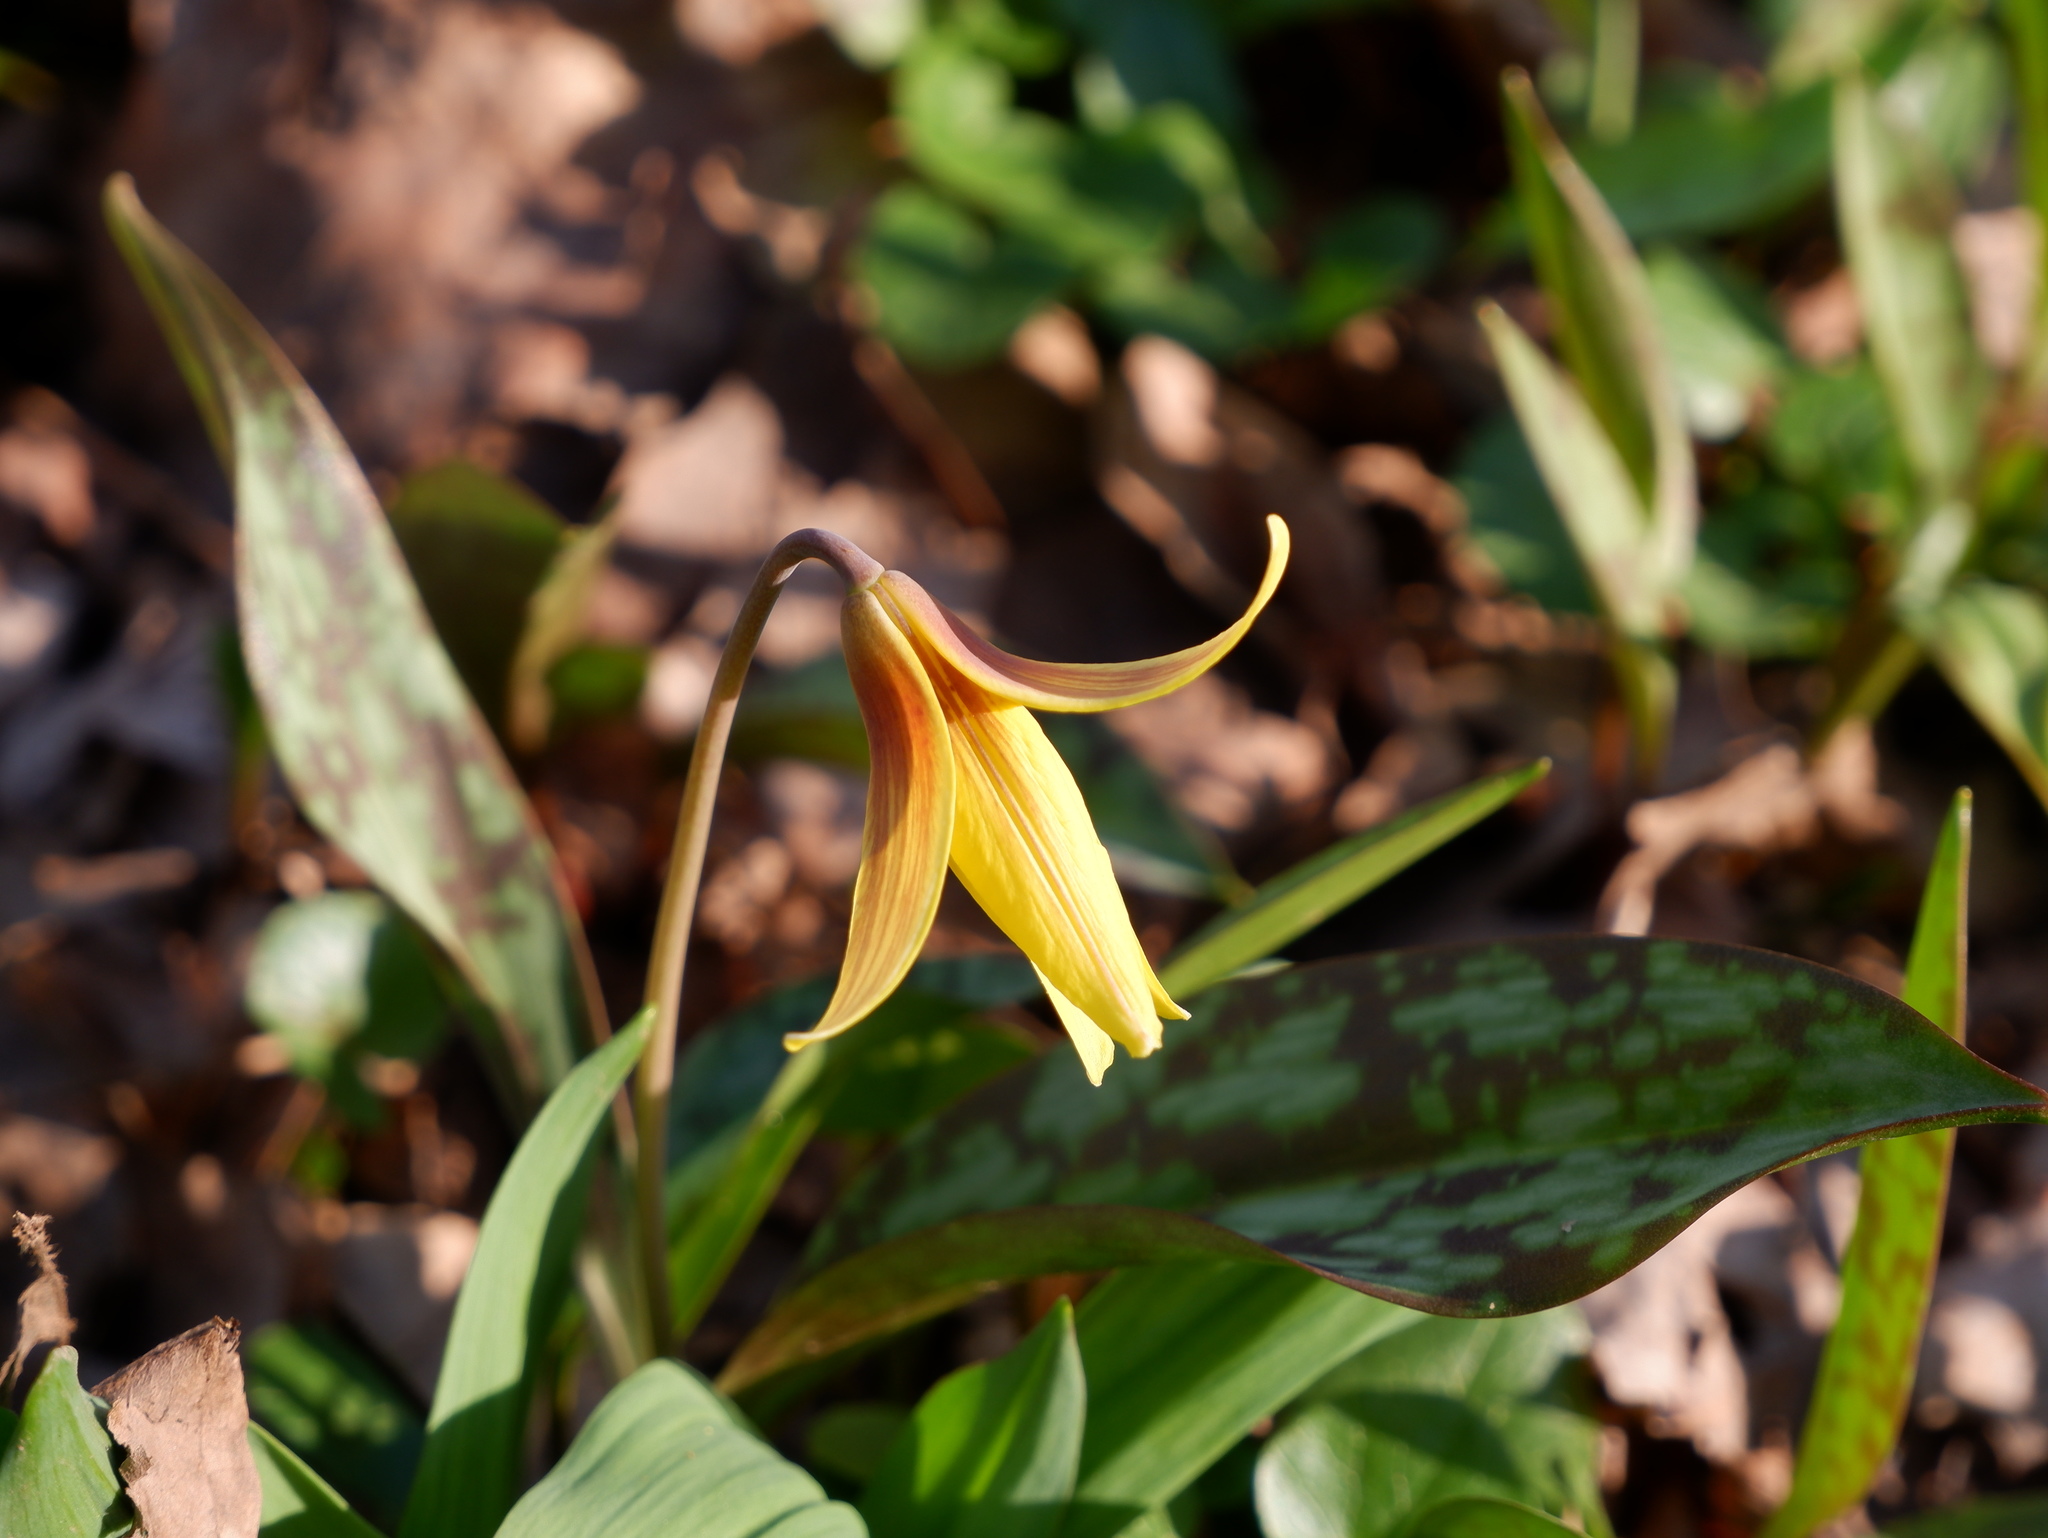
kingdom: Plantae
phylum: Tracheophyta
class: Liliopsida
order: Liliales
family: Liliaceae
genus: Erythronium
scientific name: Erythronium americanum
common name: Yellow adder's-tongue
